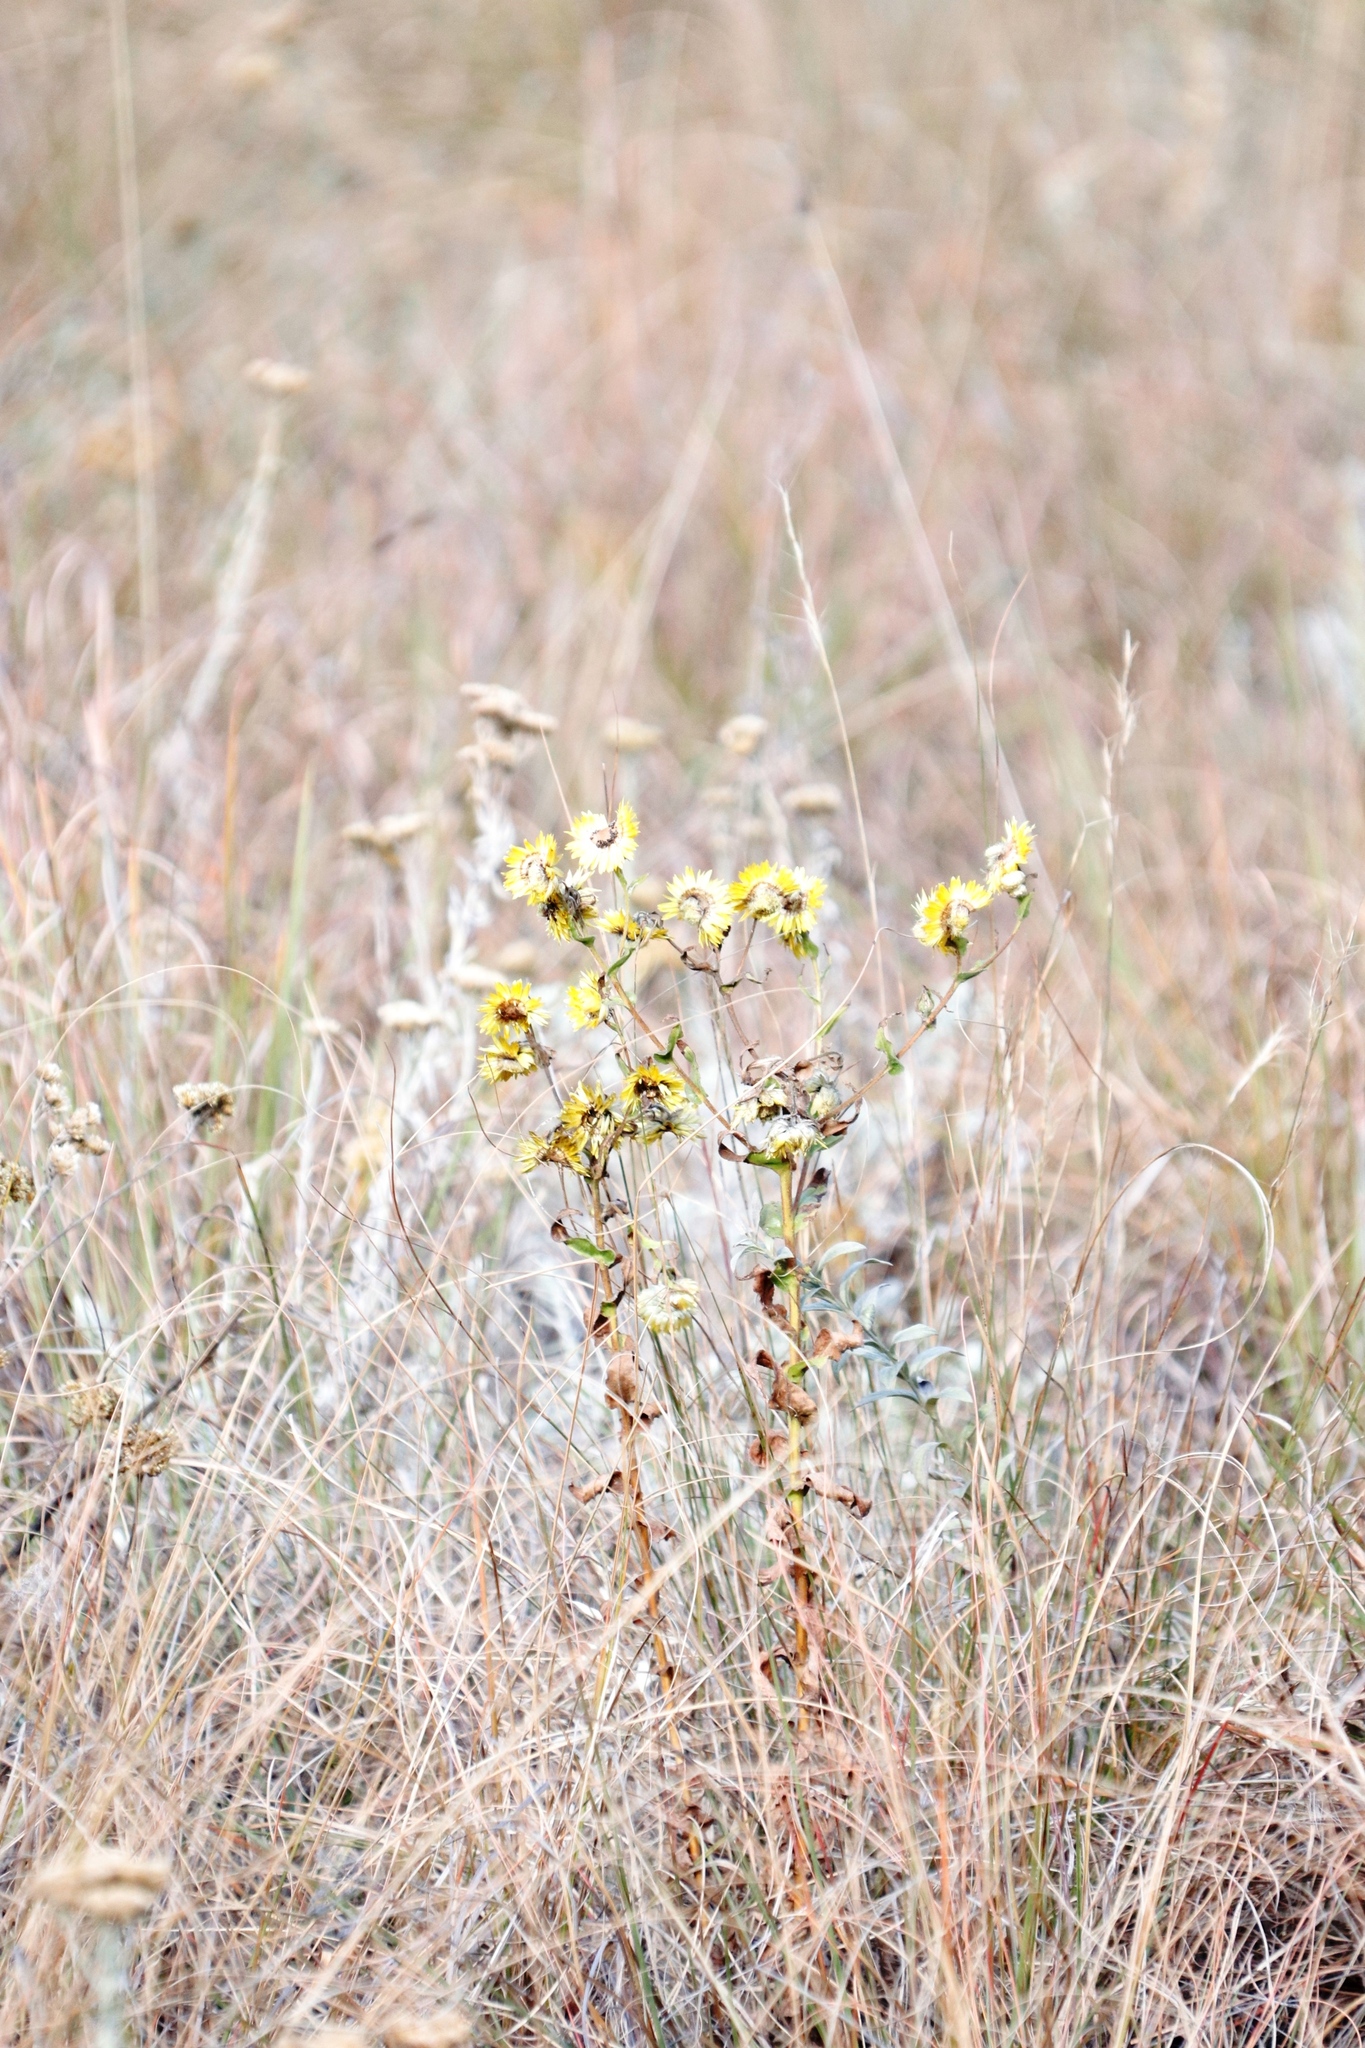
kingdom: Plantae
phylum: Tracheophyta
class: Magnoliopsida
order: Asterales
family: Asteraceae
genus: Helichrysum
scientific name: Helichrysum cooperi
